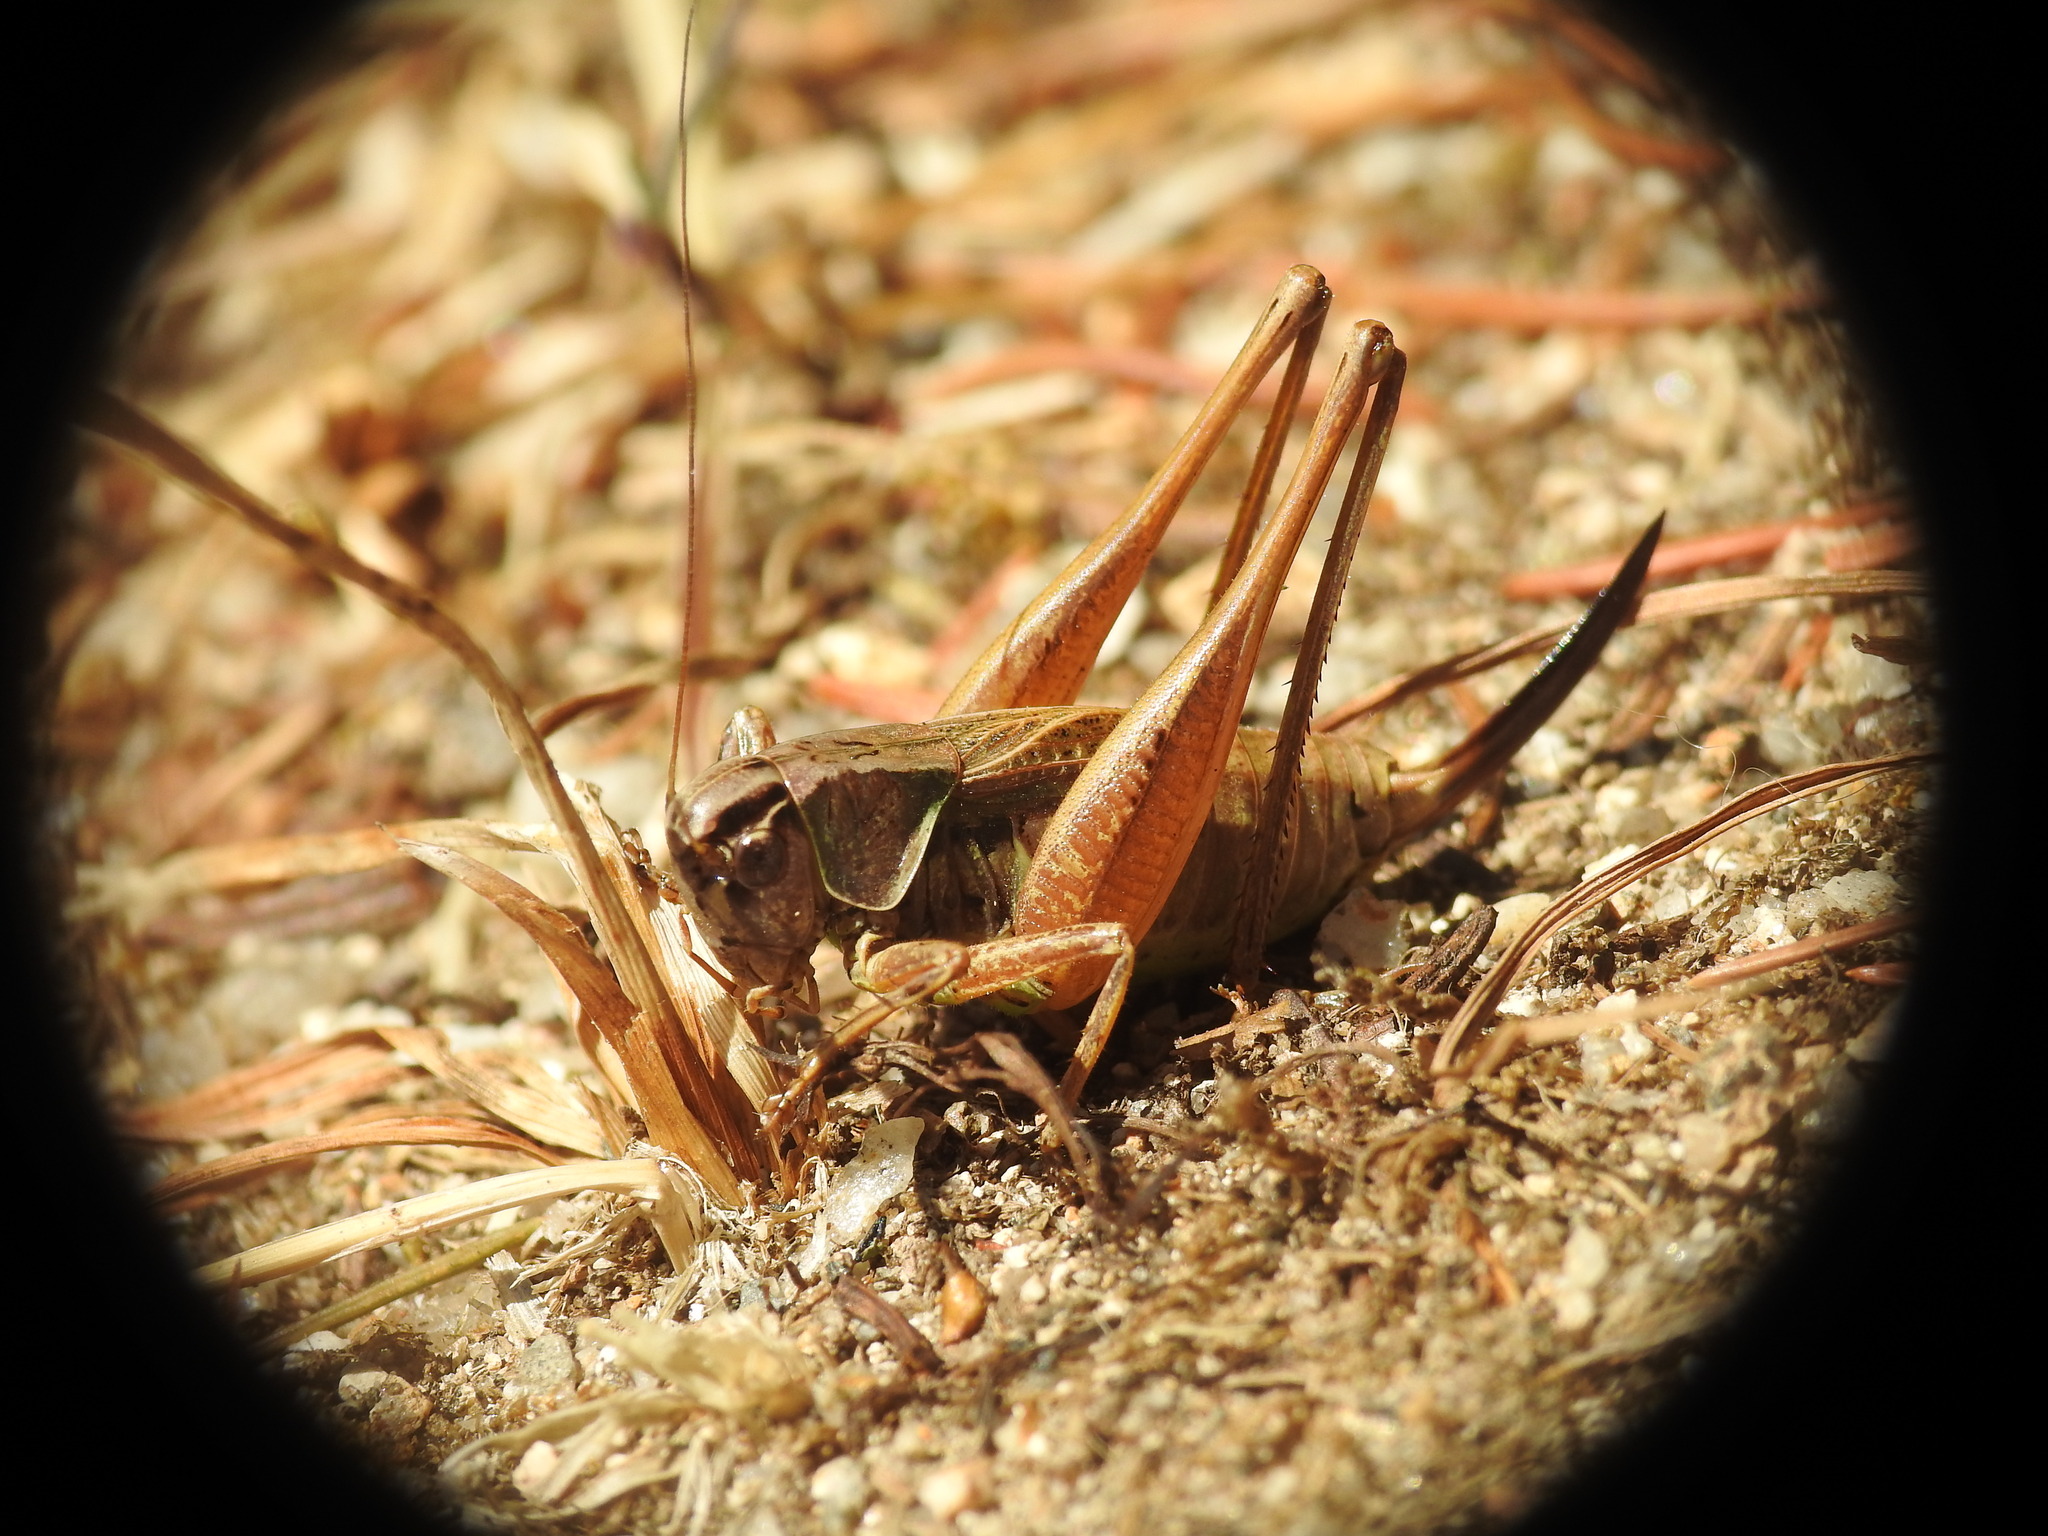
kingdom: Animalia
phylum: Arthropoda
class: Insecta
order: Orthoptera
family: Tettigoniidae
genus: Metrioptera
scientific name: Metrioptera saussuriana
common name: Purple meadow bush-cricket
